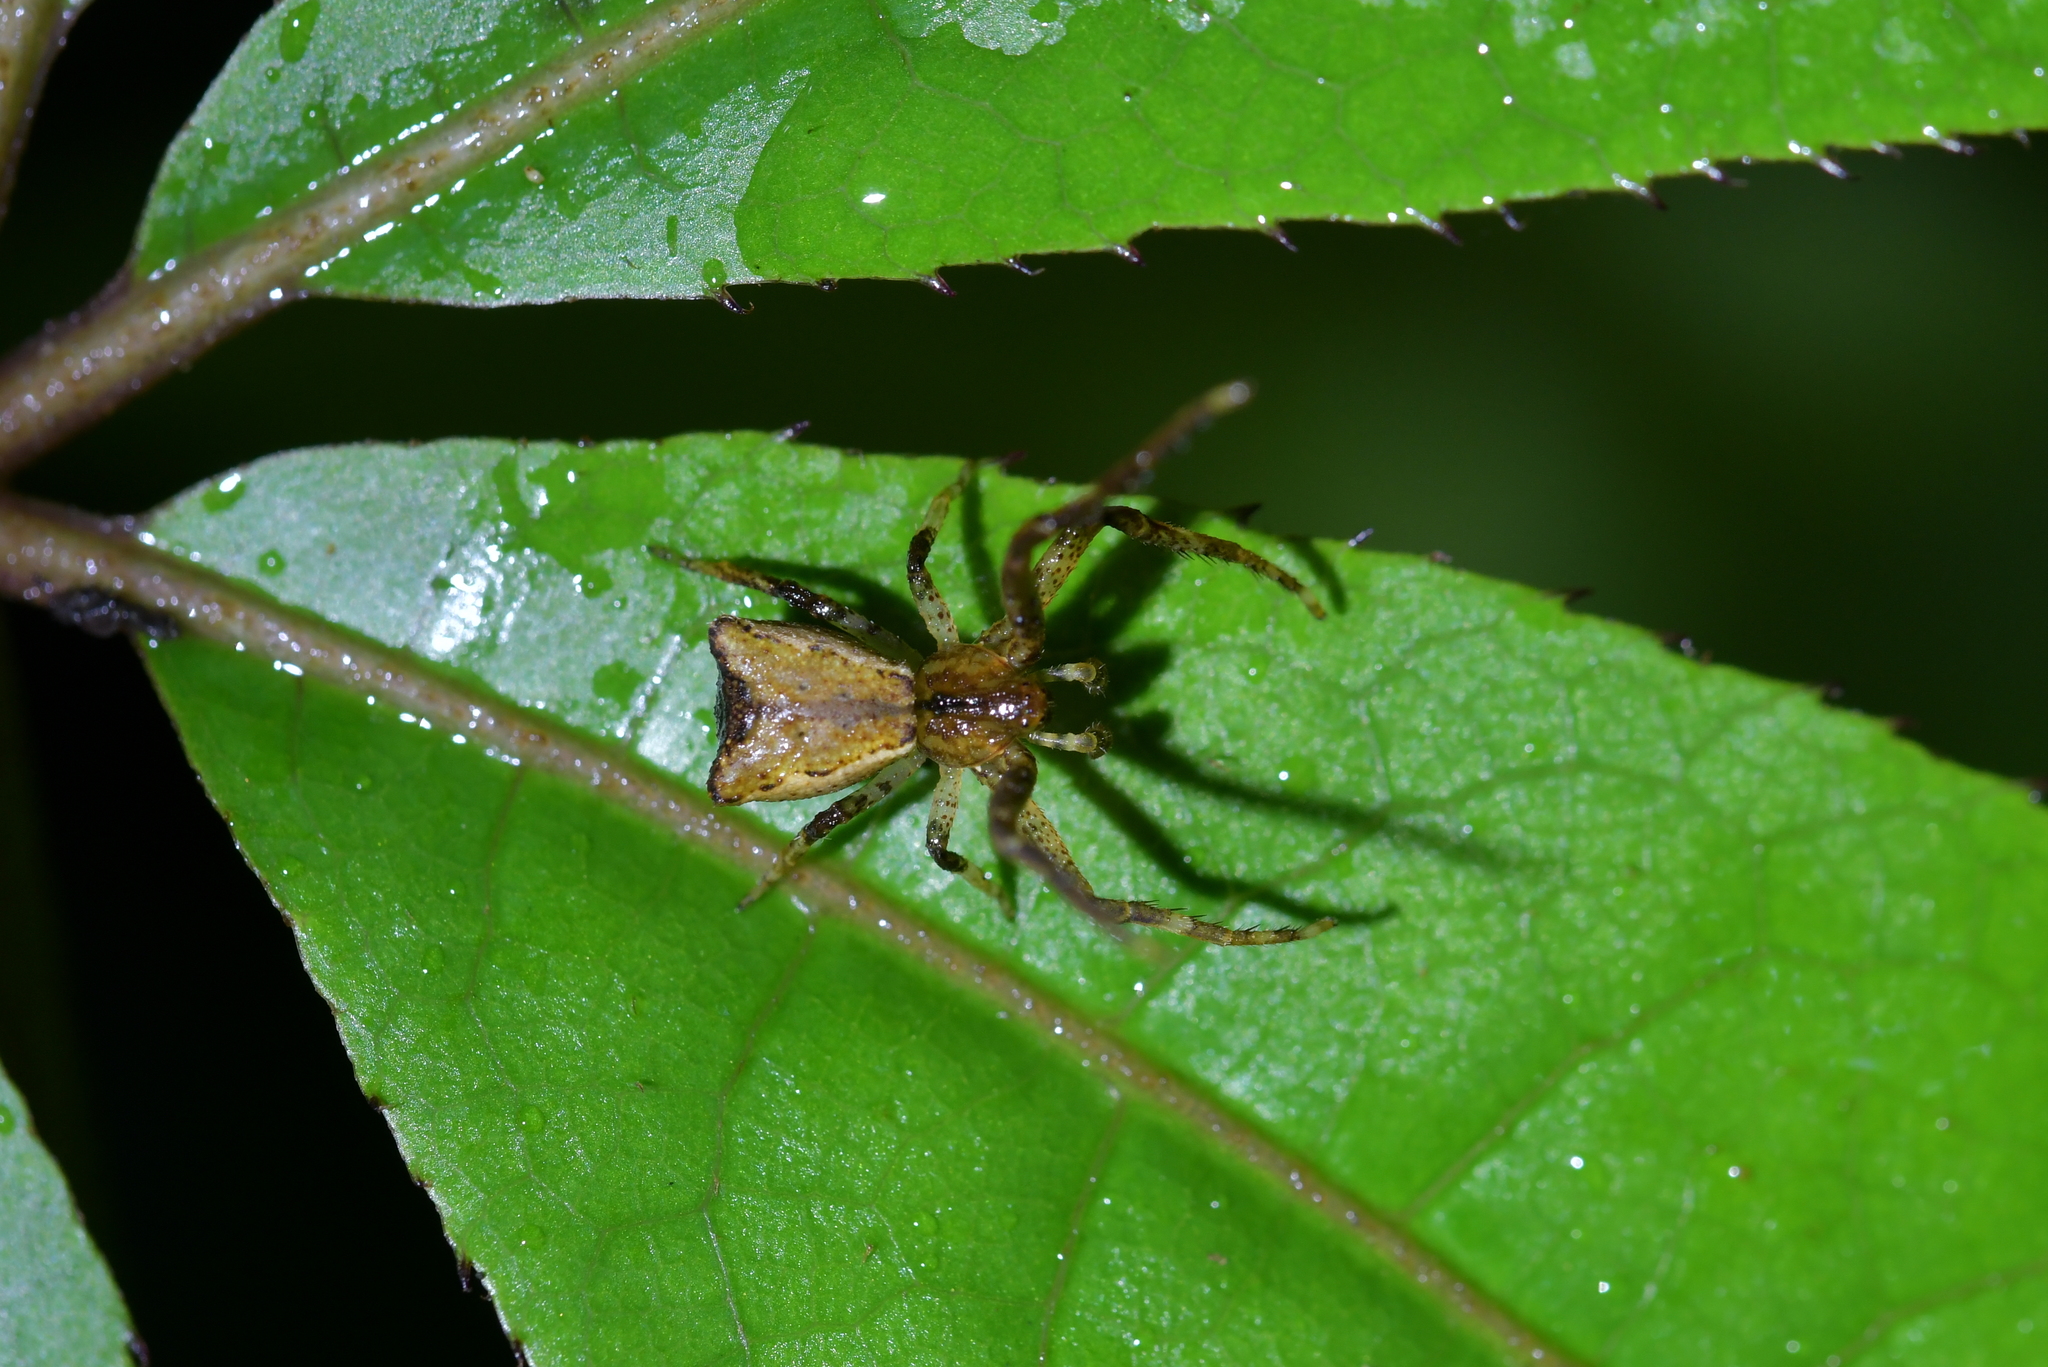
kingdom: Animalia
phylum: Arthropoda
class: Arachnida
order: Araneae
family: Thomisidae
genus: Sidymella
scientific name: Sidymella angularis
